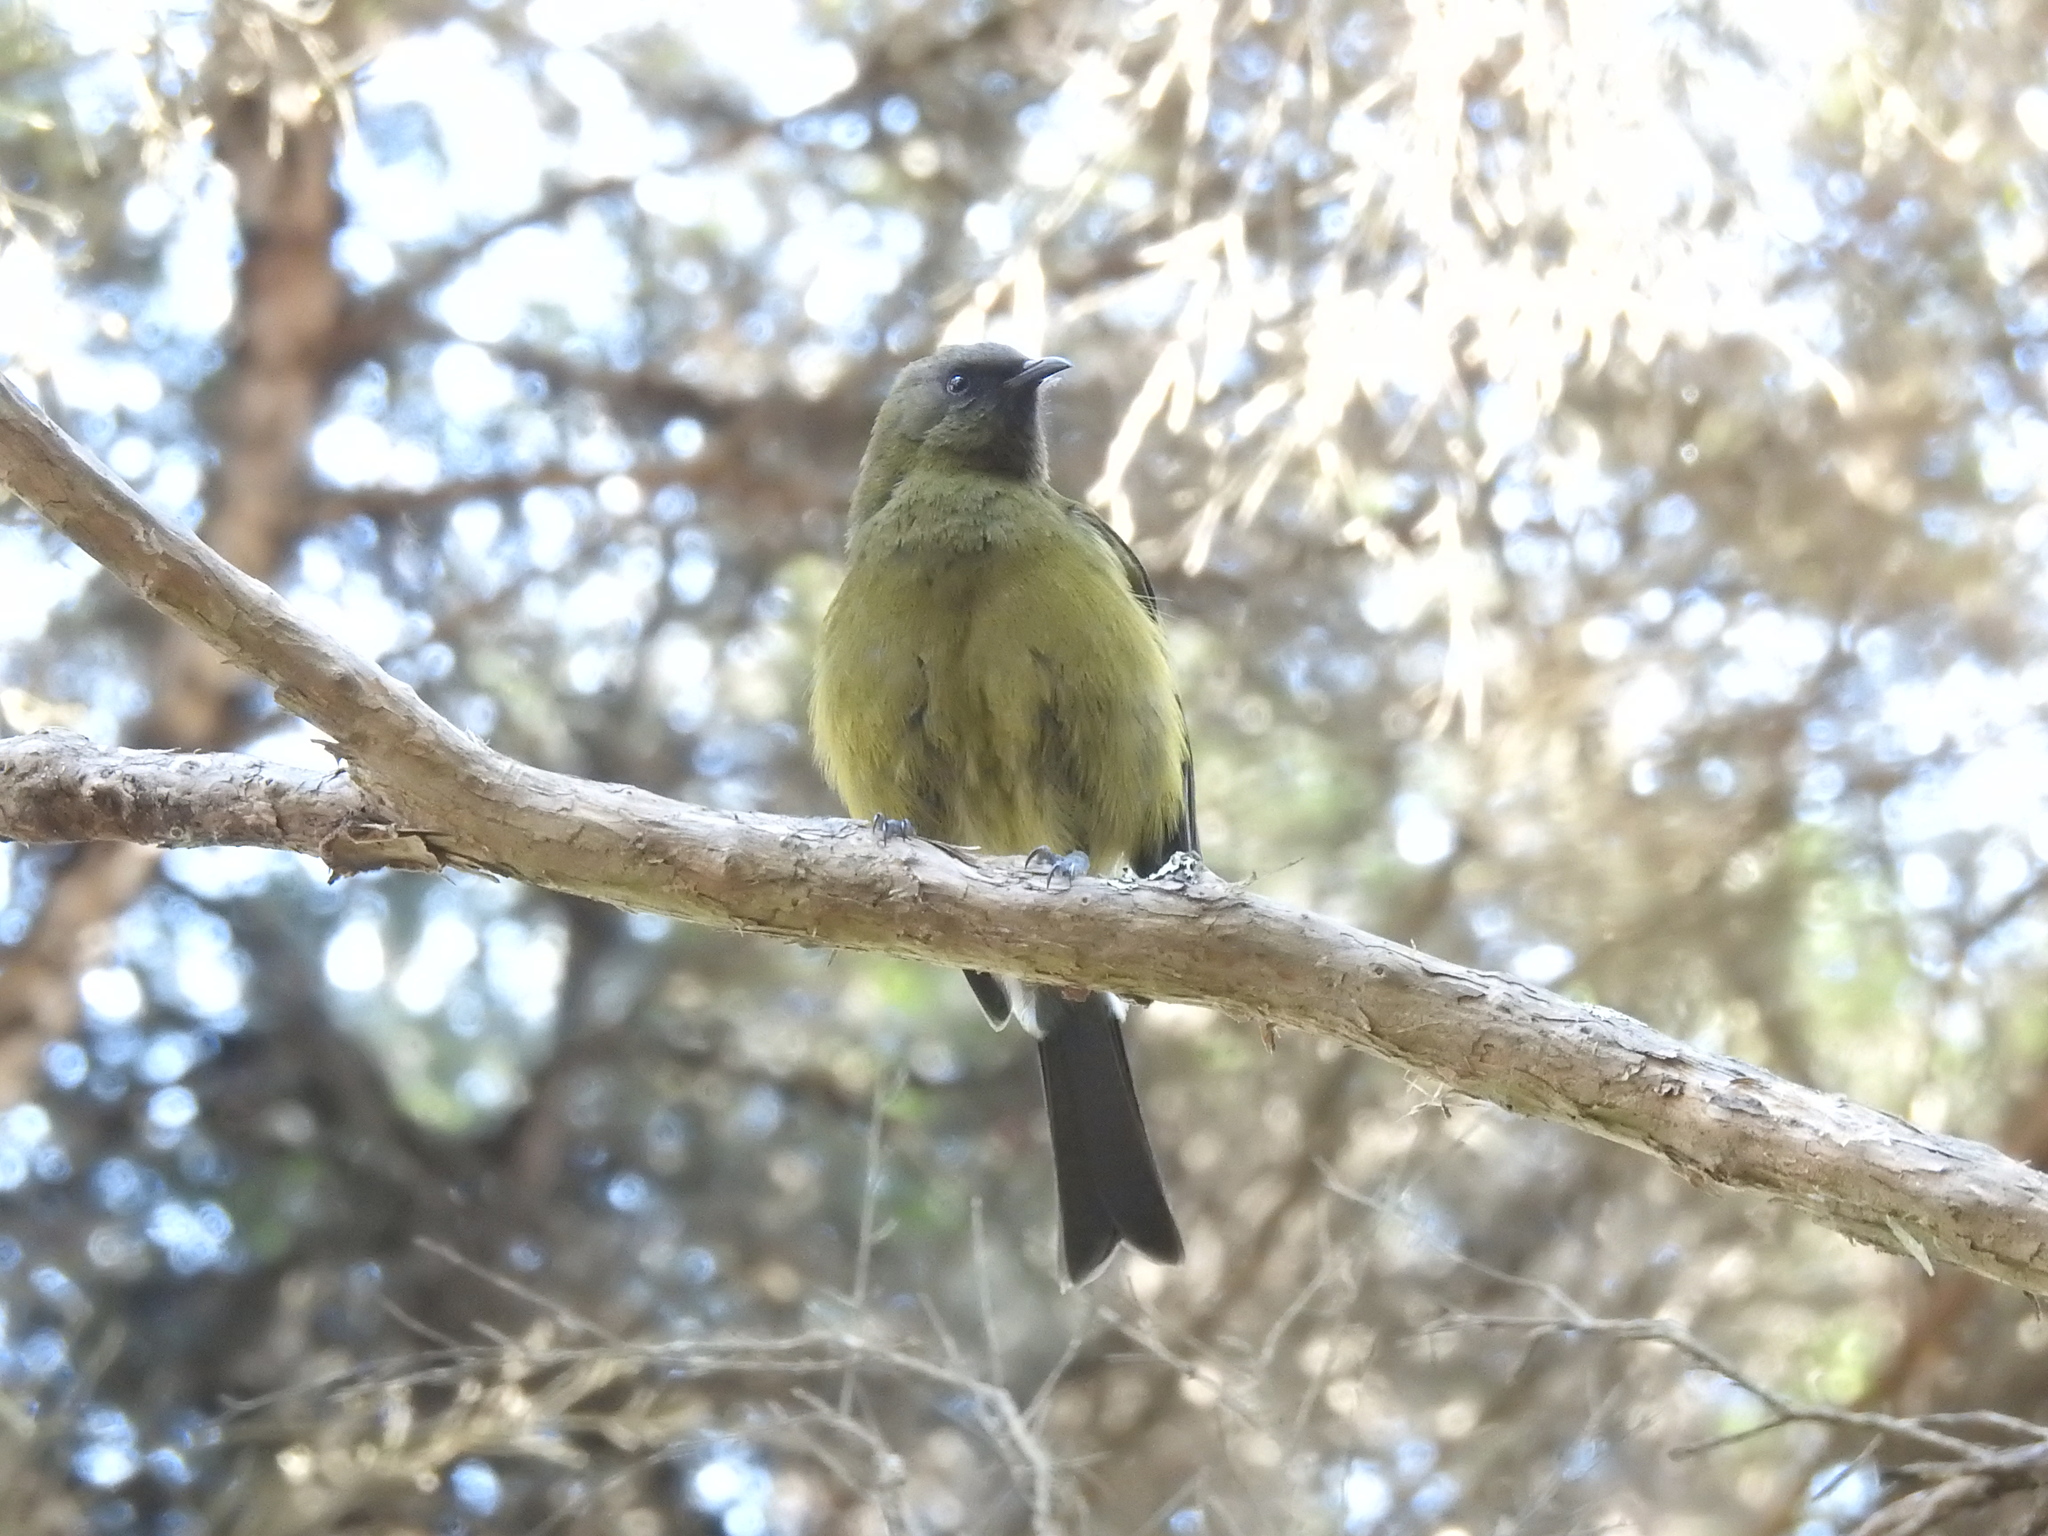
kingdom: Animalia
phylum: Chordata
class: Aves
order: Passeriformes
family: Meliphagidae
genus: Anthornis
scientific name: Anthornis melanura
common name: New zealand bellbird
